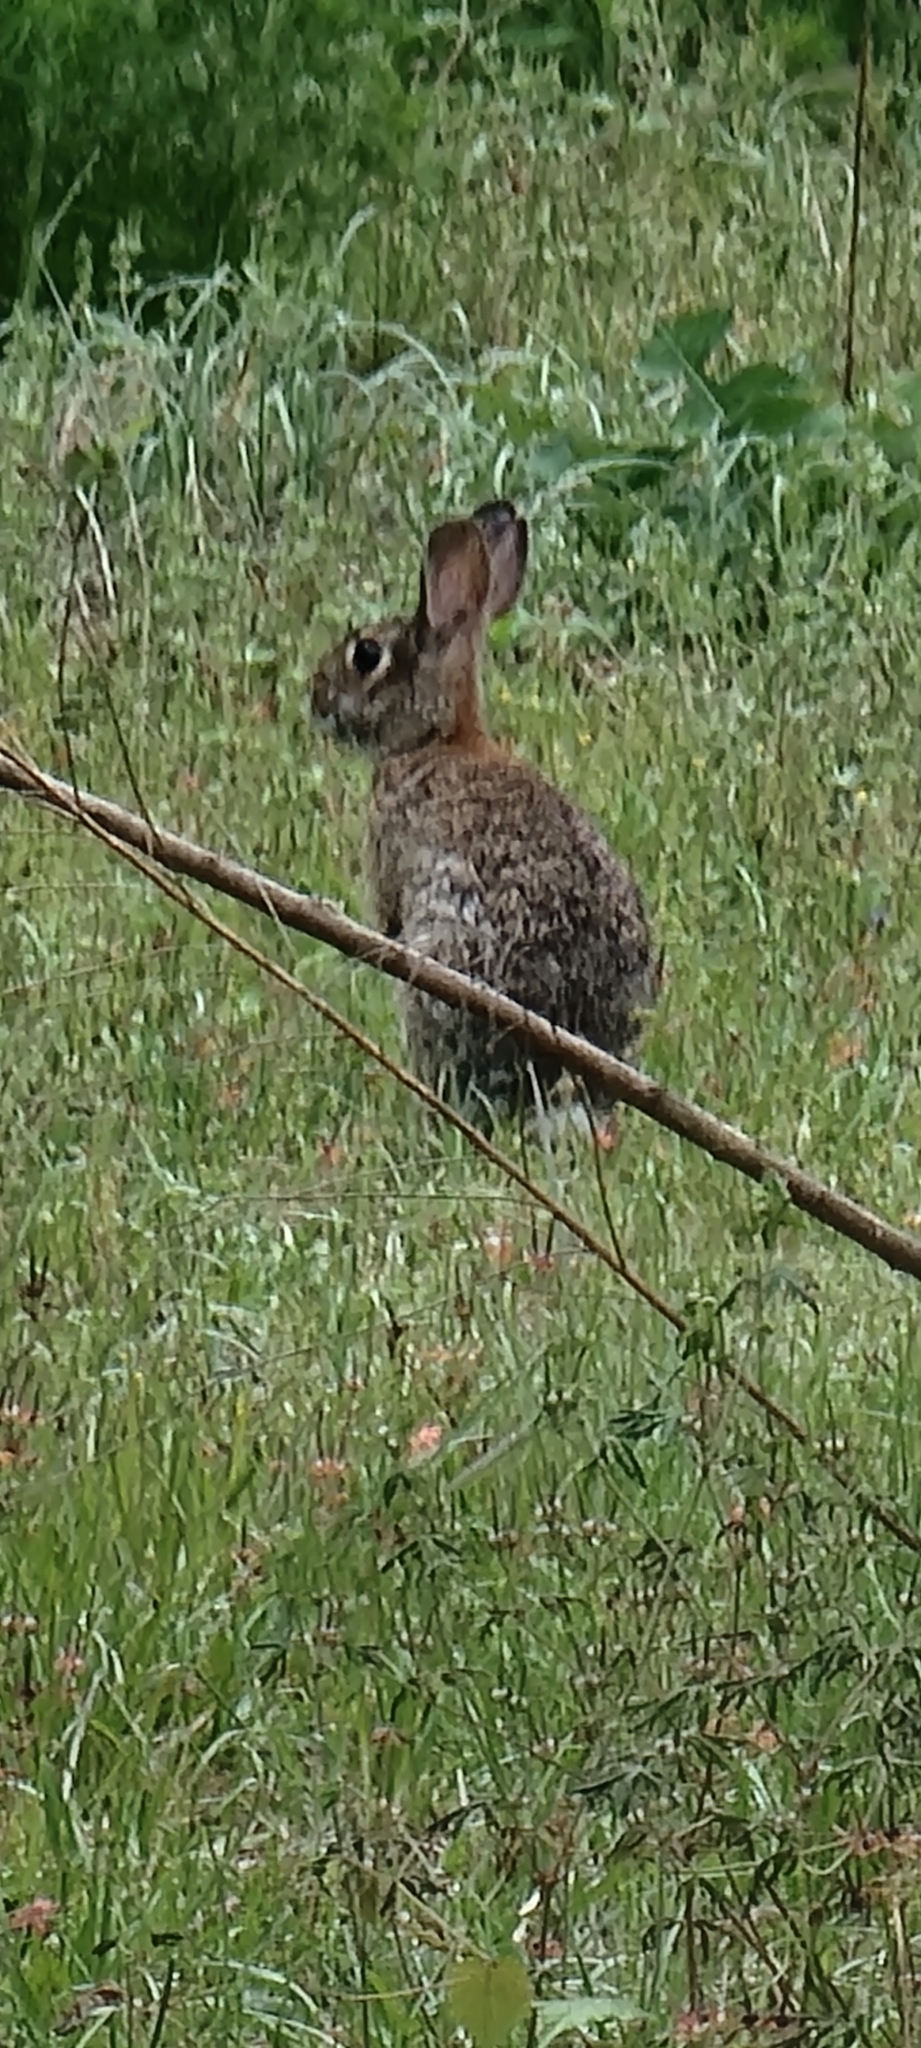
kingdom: Animalia
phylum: Chordata
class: Mammalia
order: Lagomorpha
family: Leporidae
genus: Sylvilagus
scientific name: Sylvilagus floridanus
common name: Eastern cottontail
